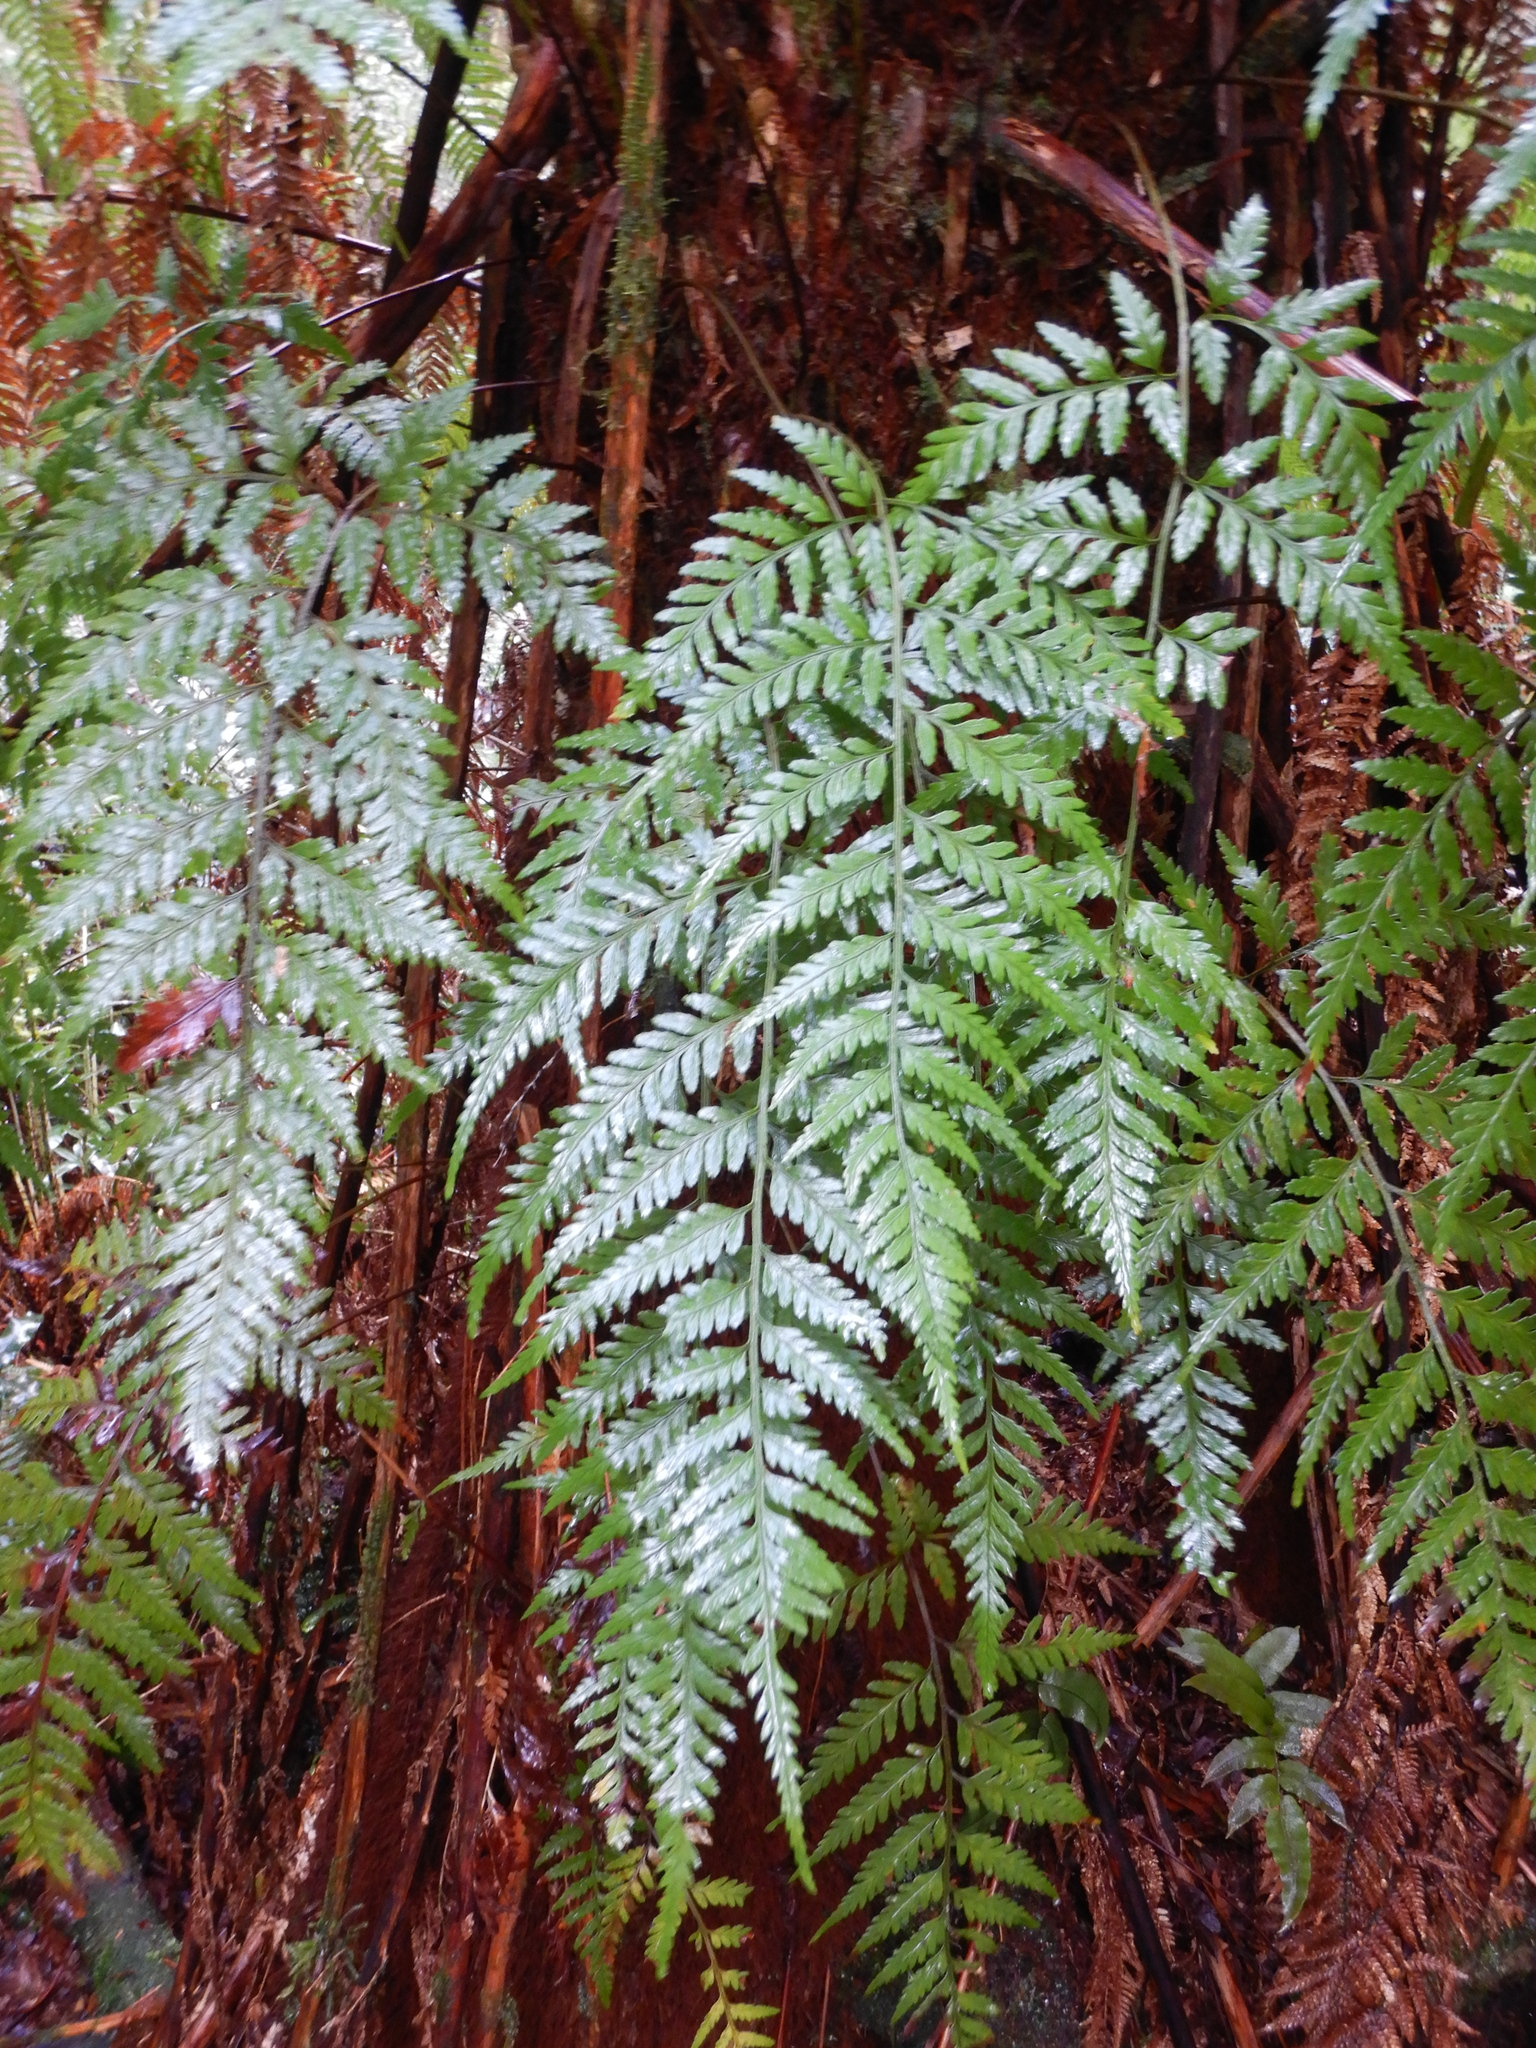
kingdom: Plantae
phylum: Tracheophyta
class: Polypodiopsida
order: Cyatheales
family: Dicksoniaceae
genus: Dicksonia
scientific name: Dicksonia antarctica
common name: Australian treefern
